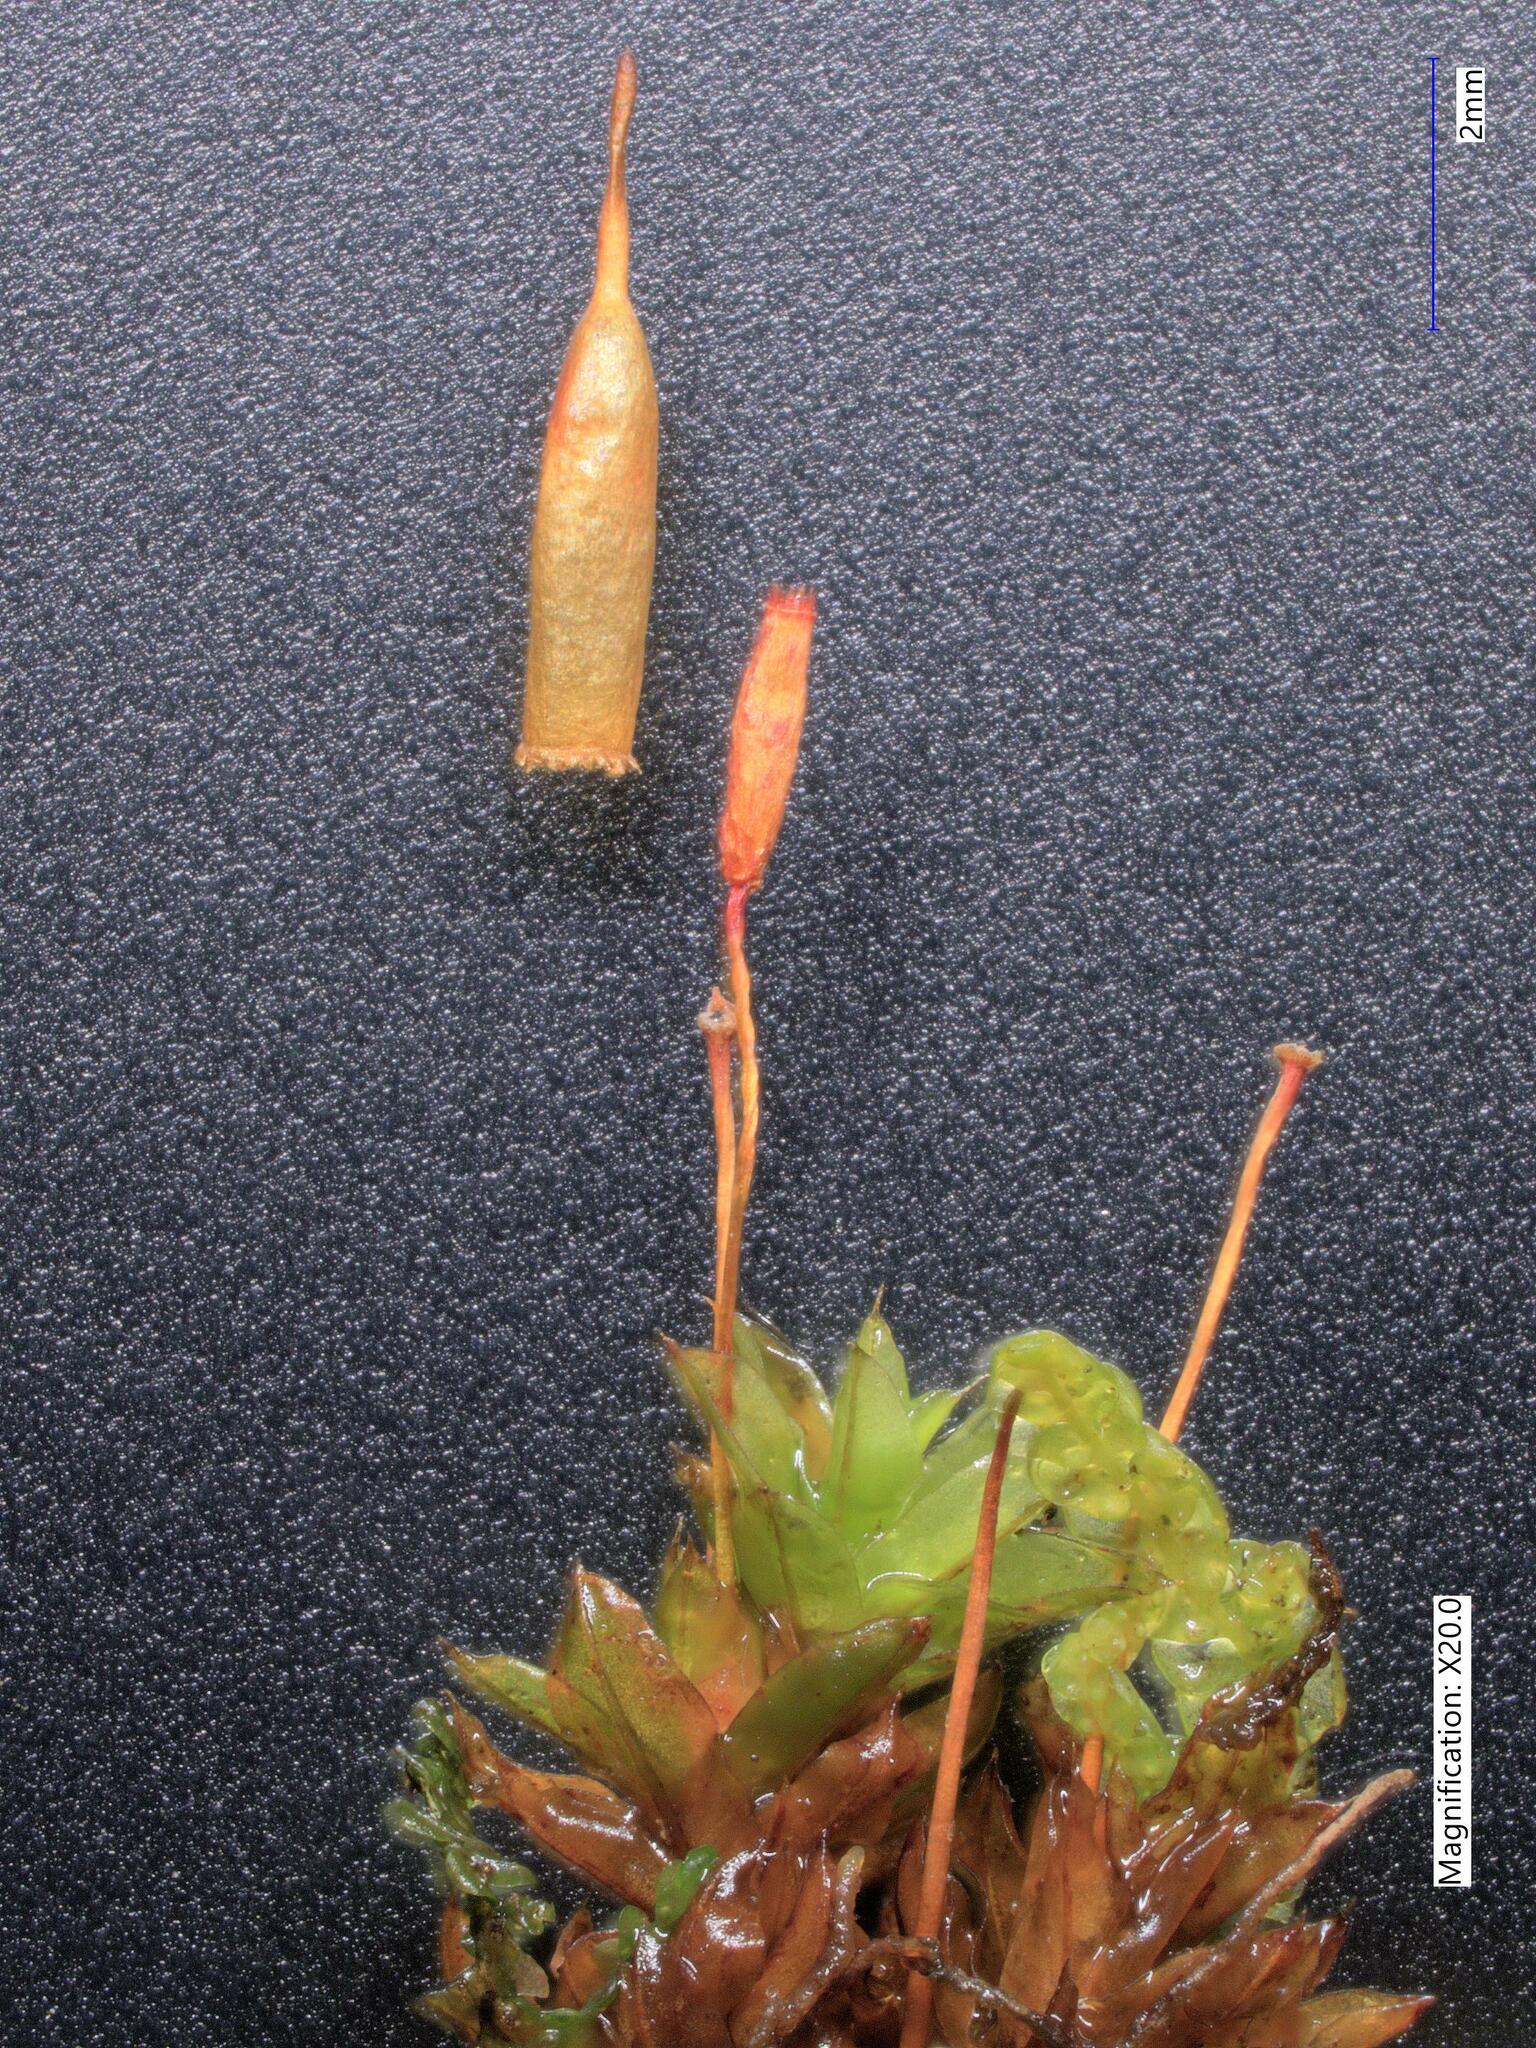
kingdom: Plantae
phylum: Bryophyta
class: Bryopsida
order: Encalyptales
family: Encalyptaceae
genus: Encalypta
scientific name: Encalypta ciliata
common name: Fringed extinguisher-moss
